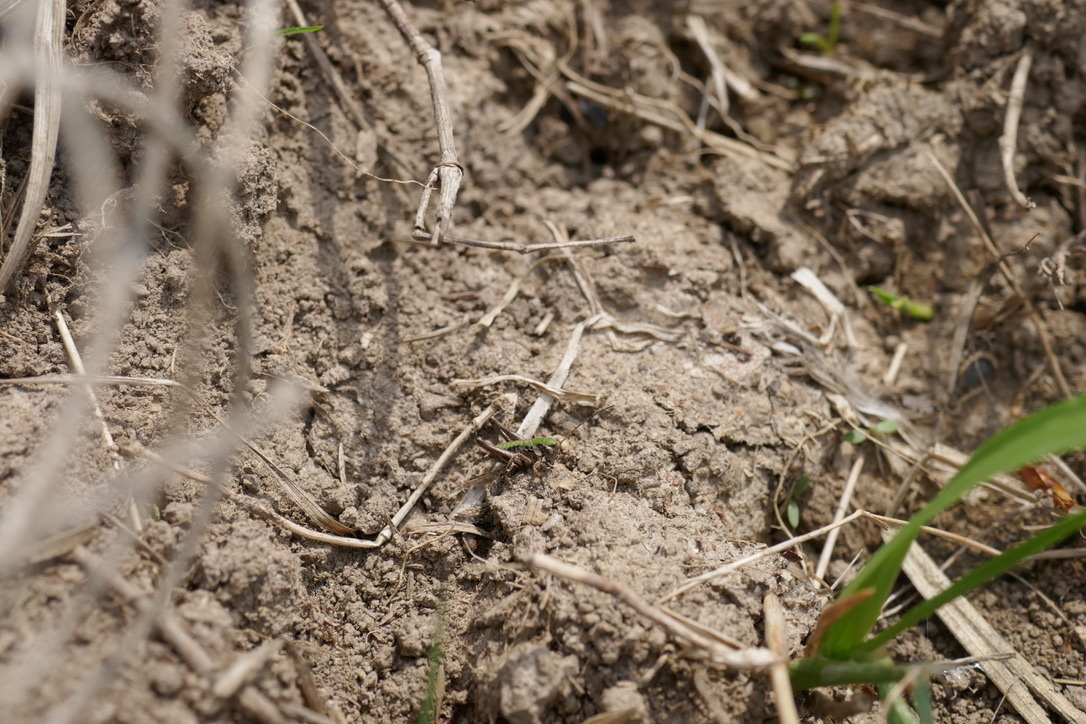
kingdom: Animalia
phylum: Arthropoda
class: Insecta
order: Orthoptera
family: Tettigoniidae
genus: Decticus
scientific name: Decticus verrucivorus
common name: Wart-biter
